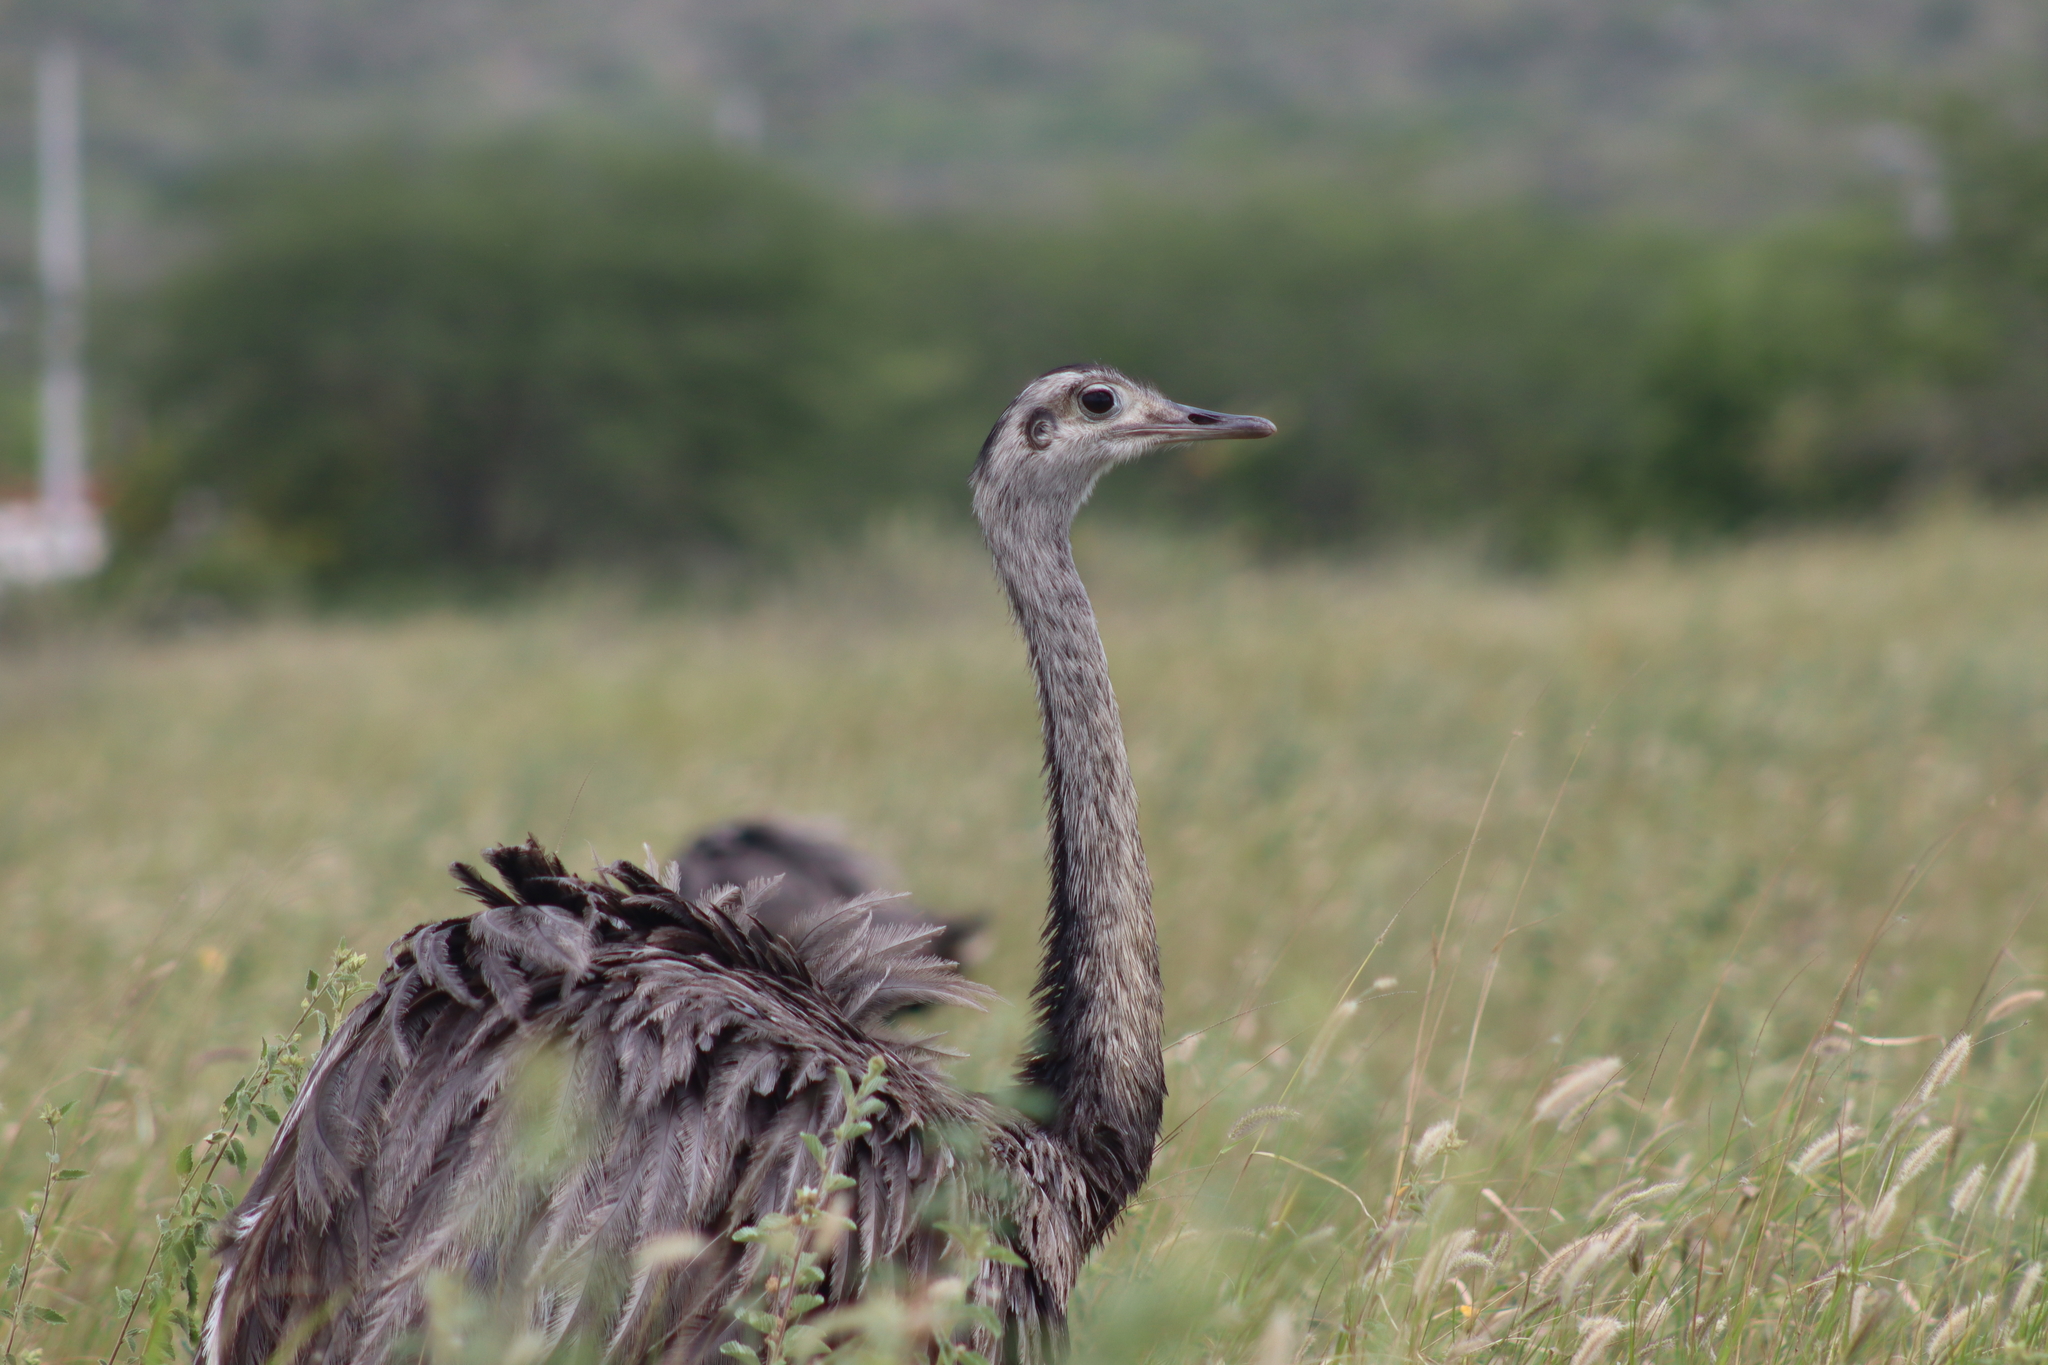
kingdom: Animalia
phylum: Chordata
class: Aves
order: Rheiformes
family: Rheidae
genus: Rhea
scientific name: Rhea americana
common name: Greater rhea
